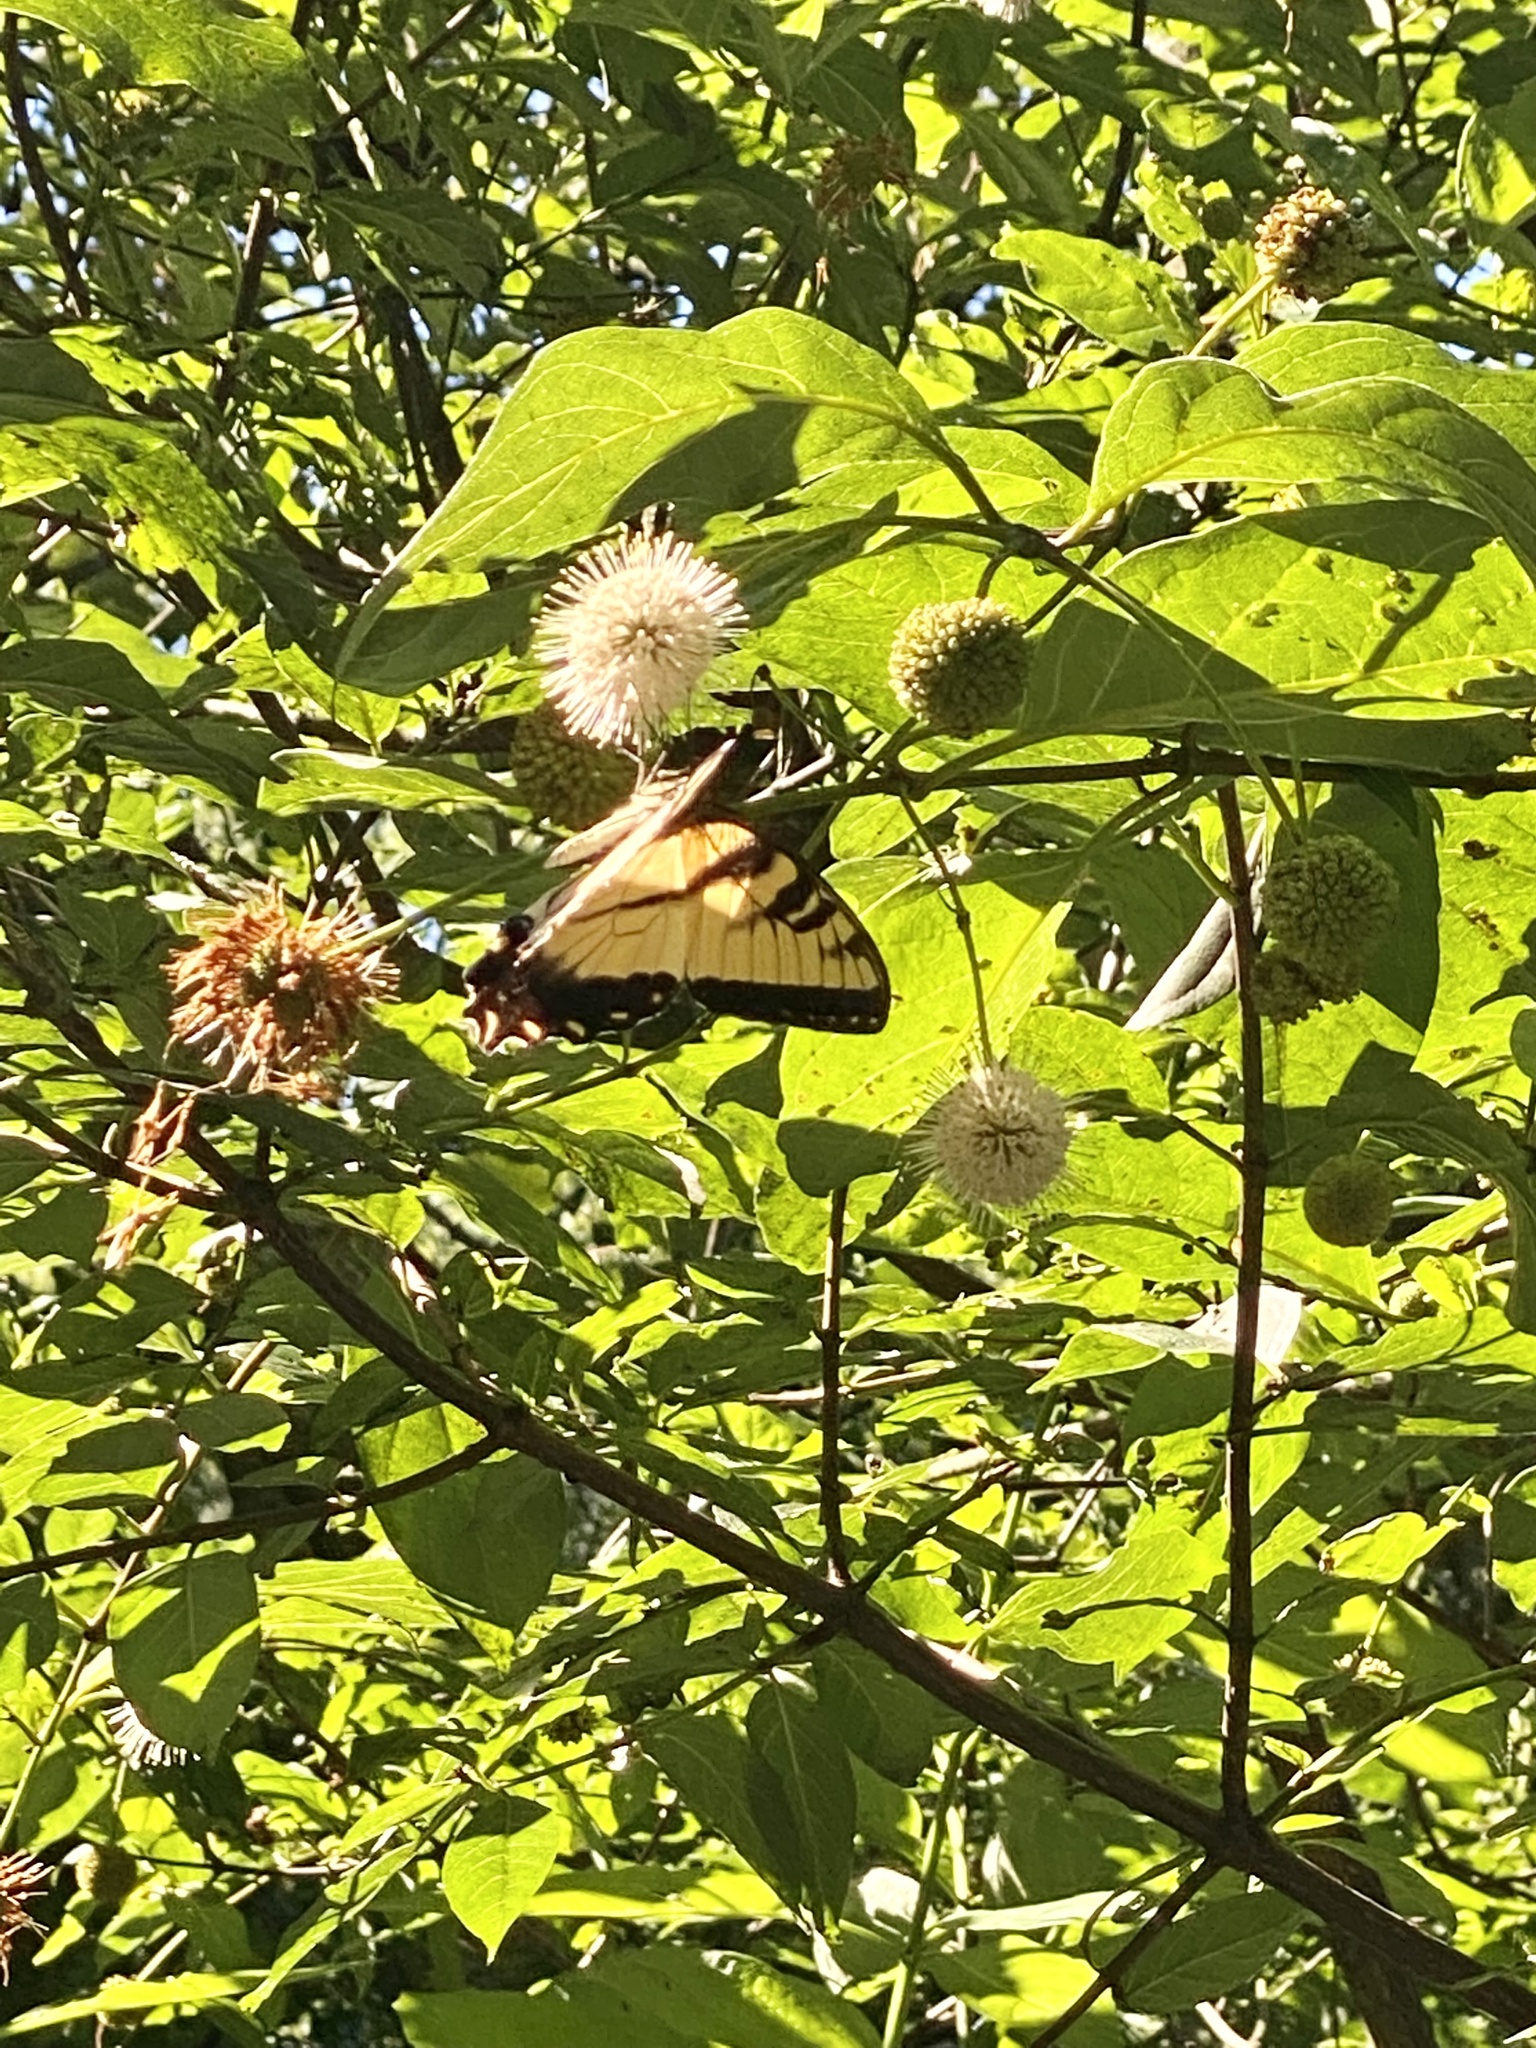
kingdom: Animalia
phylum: Arthropoda
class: Insecta
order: Lepidoptera
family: Papilionidae
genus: Papilio
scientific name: Papilio glaucus
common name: Tiger swallowtail
